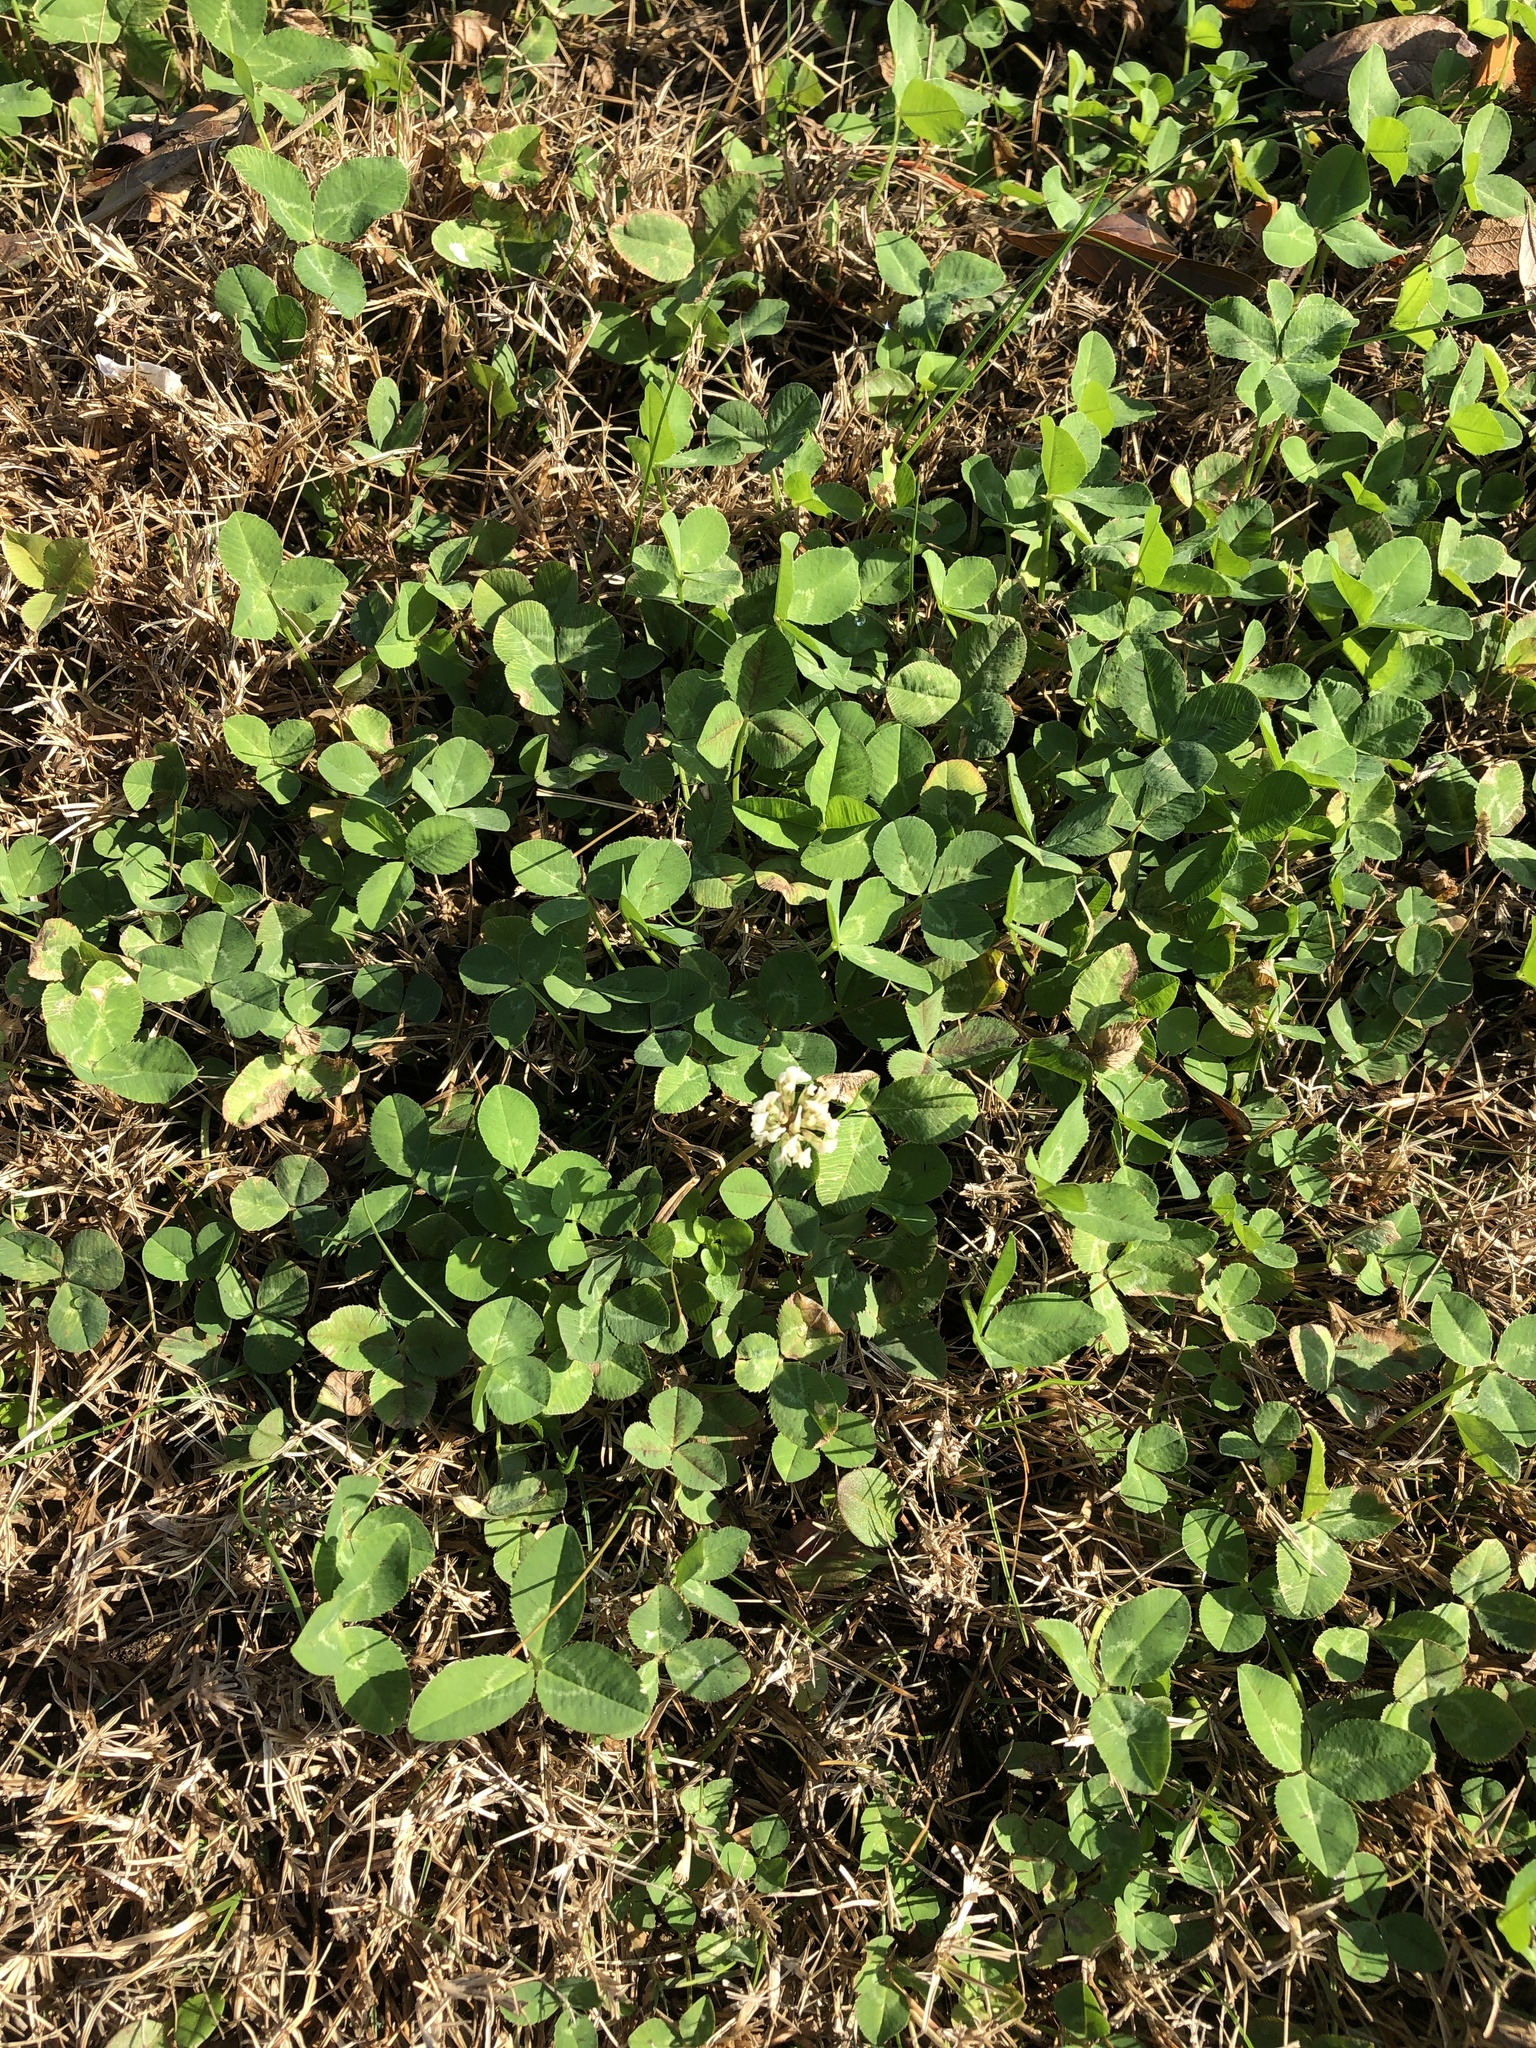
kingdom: Plantae
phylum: Tracheophyta
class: Magnoliopsida
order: Fabales
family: Fabaceae
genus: Trifolium
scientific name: Trifolium repens
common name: White clover
